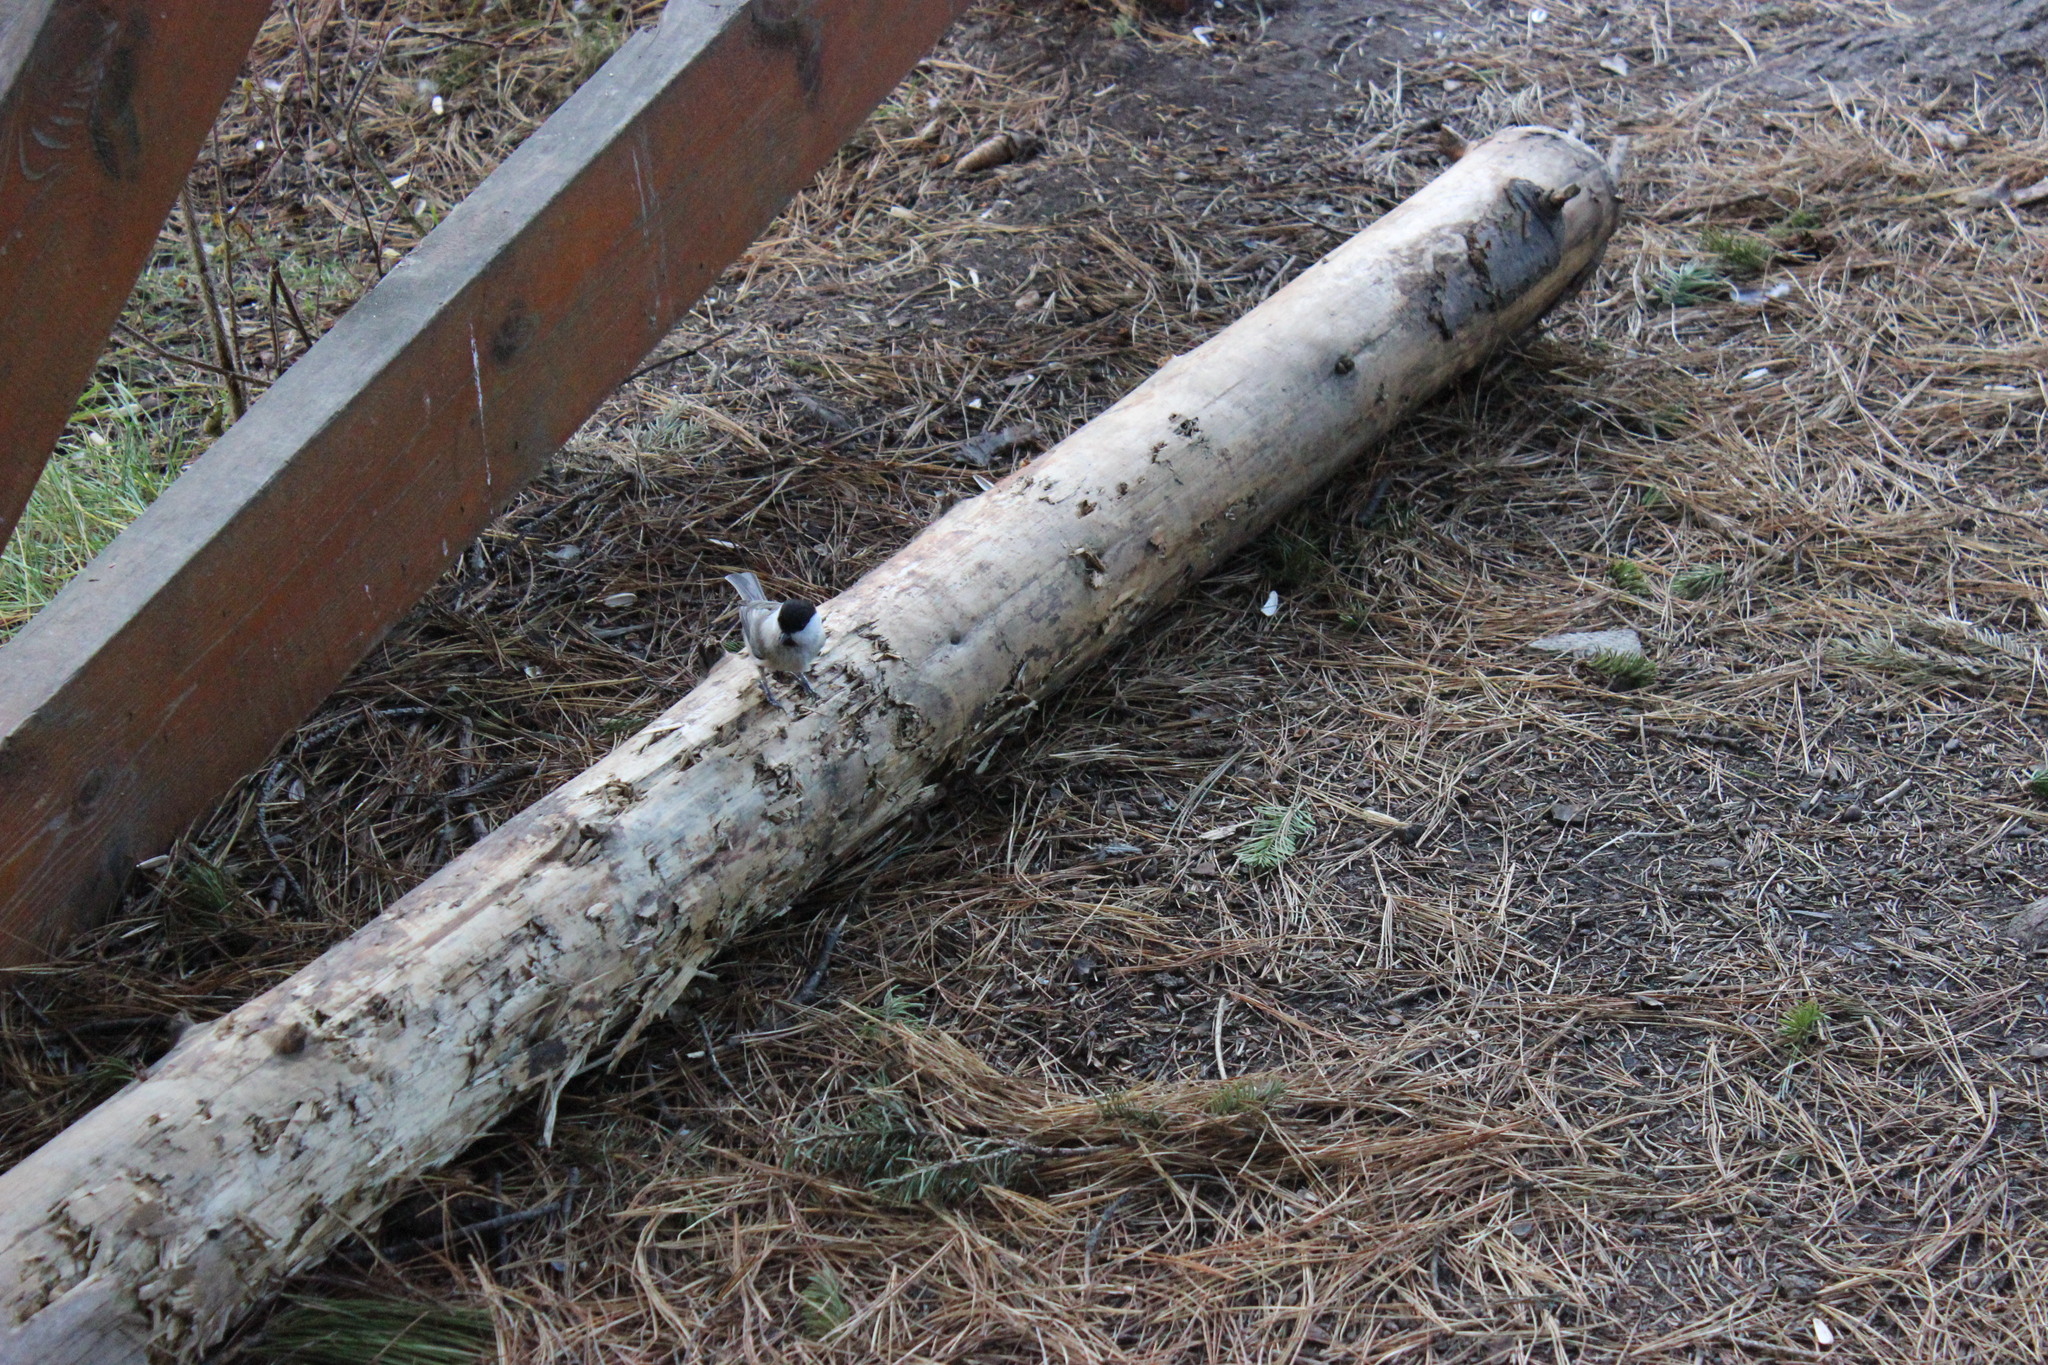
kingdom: Animalia
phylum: Chordata
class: Aves
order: Passeriformes
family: Paridae
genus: Poecile
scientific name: Poecile montanus
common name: Willow tit
